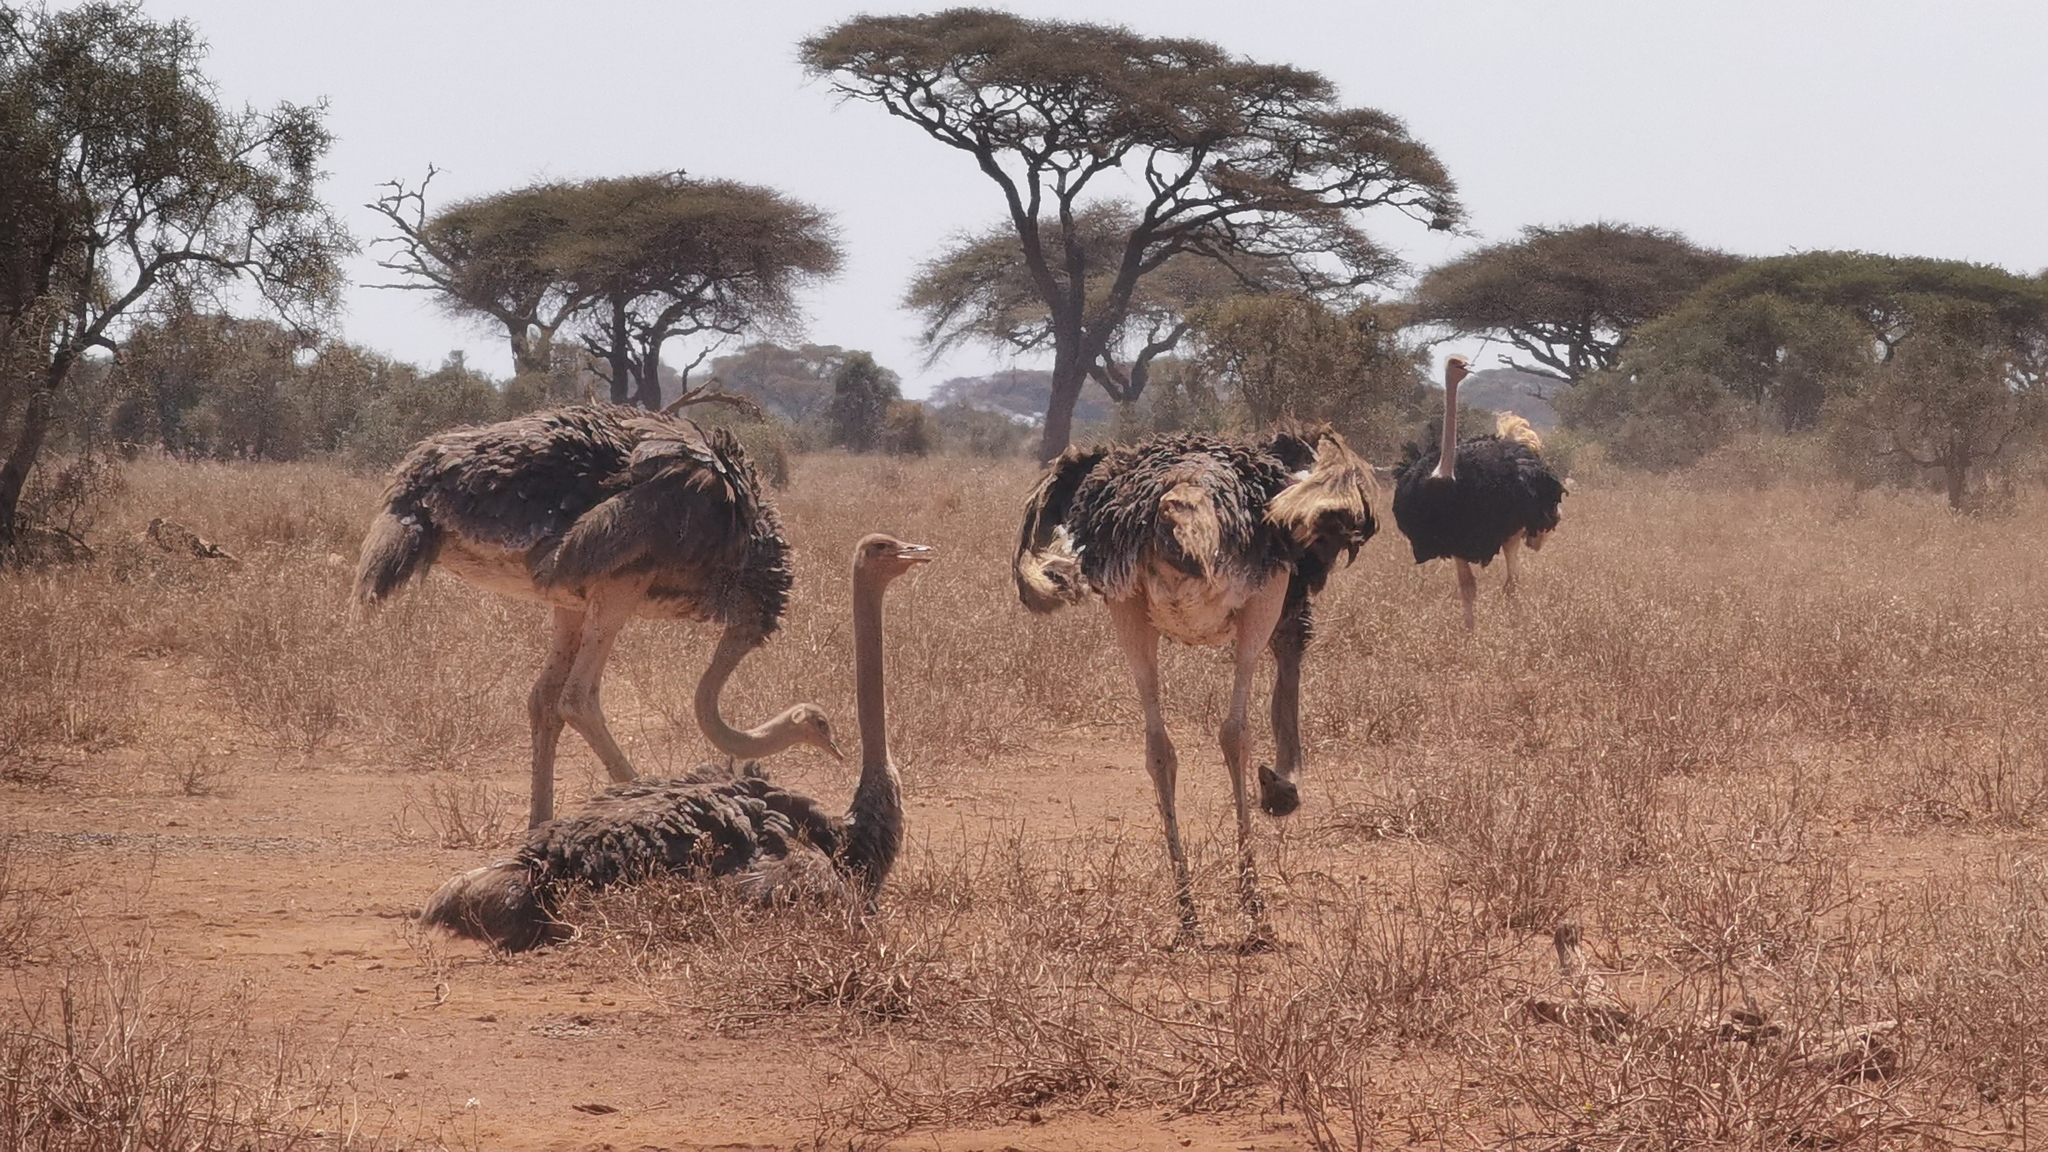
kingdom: Animalia
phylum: Chordata
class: Aves
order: Struthioniformes
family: Struthionidae
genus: Struthio
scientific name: Struthio camelus
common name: Common ostrich
